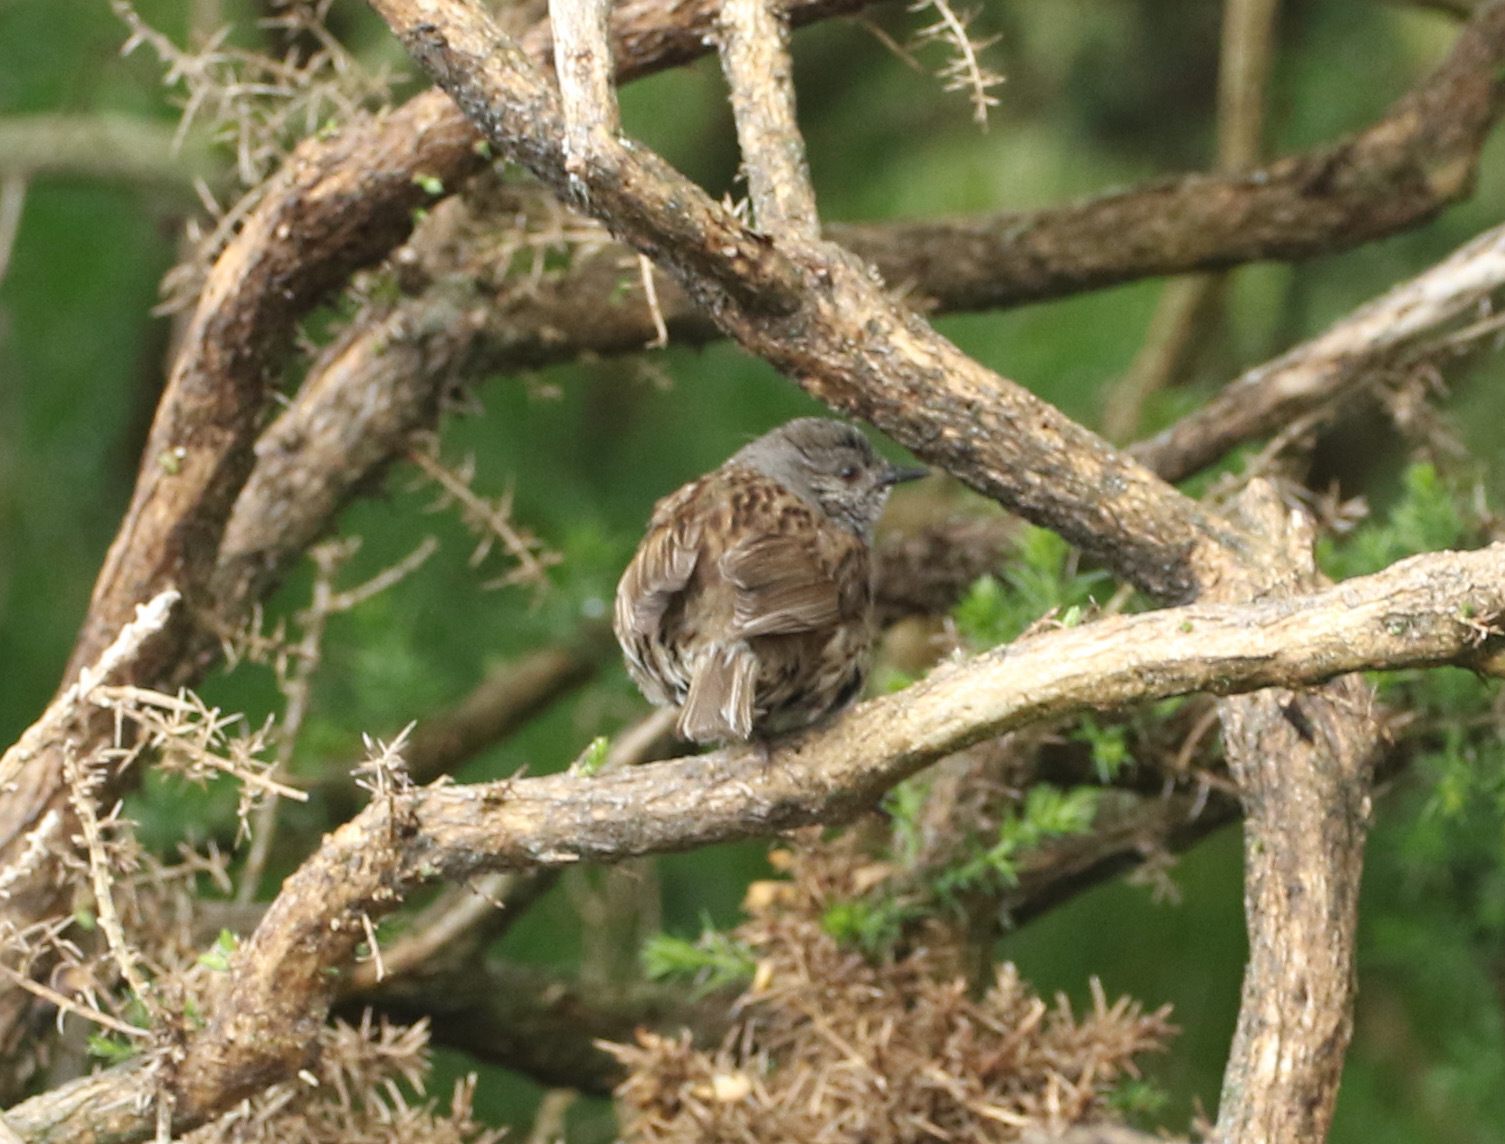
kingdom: Animalia
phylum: Chordata
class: Aves
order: Passeriformes
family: Prunellidae
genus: Prunella
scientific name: Prunella modularis
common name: Dunnock
